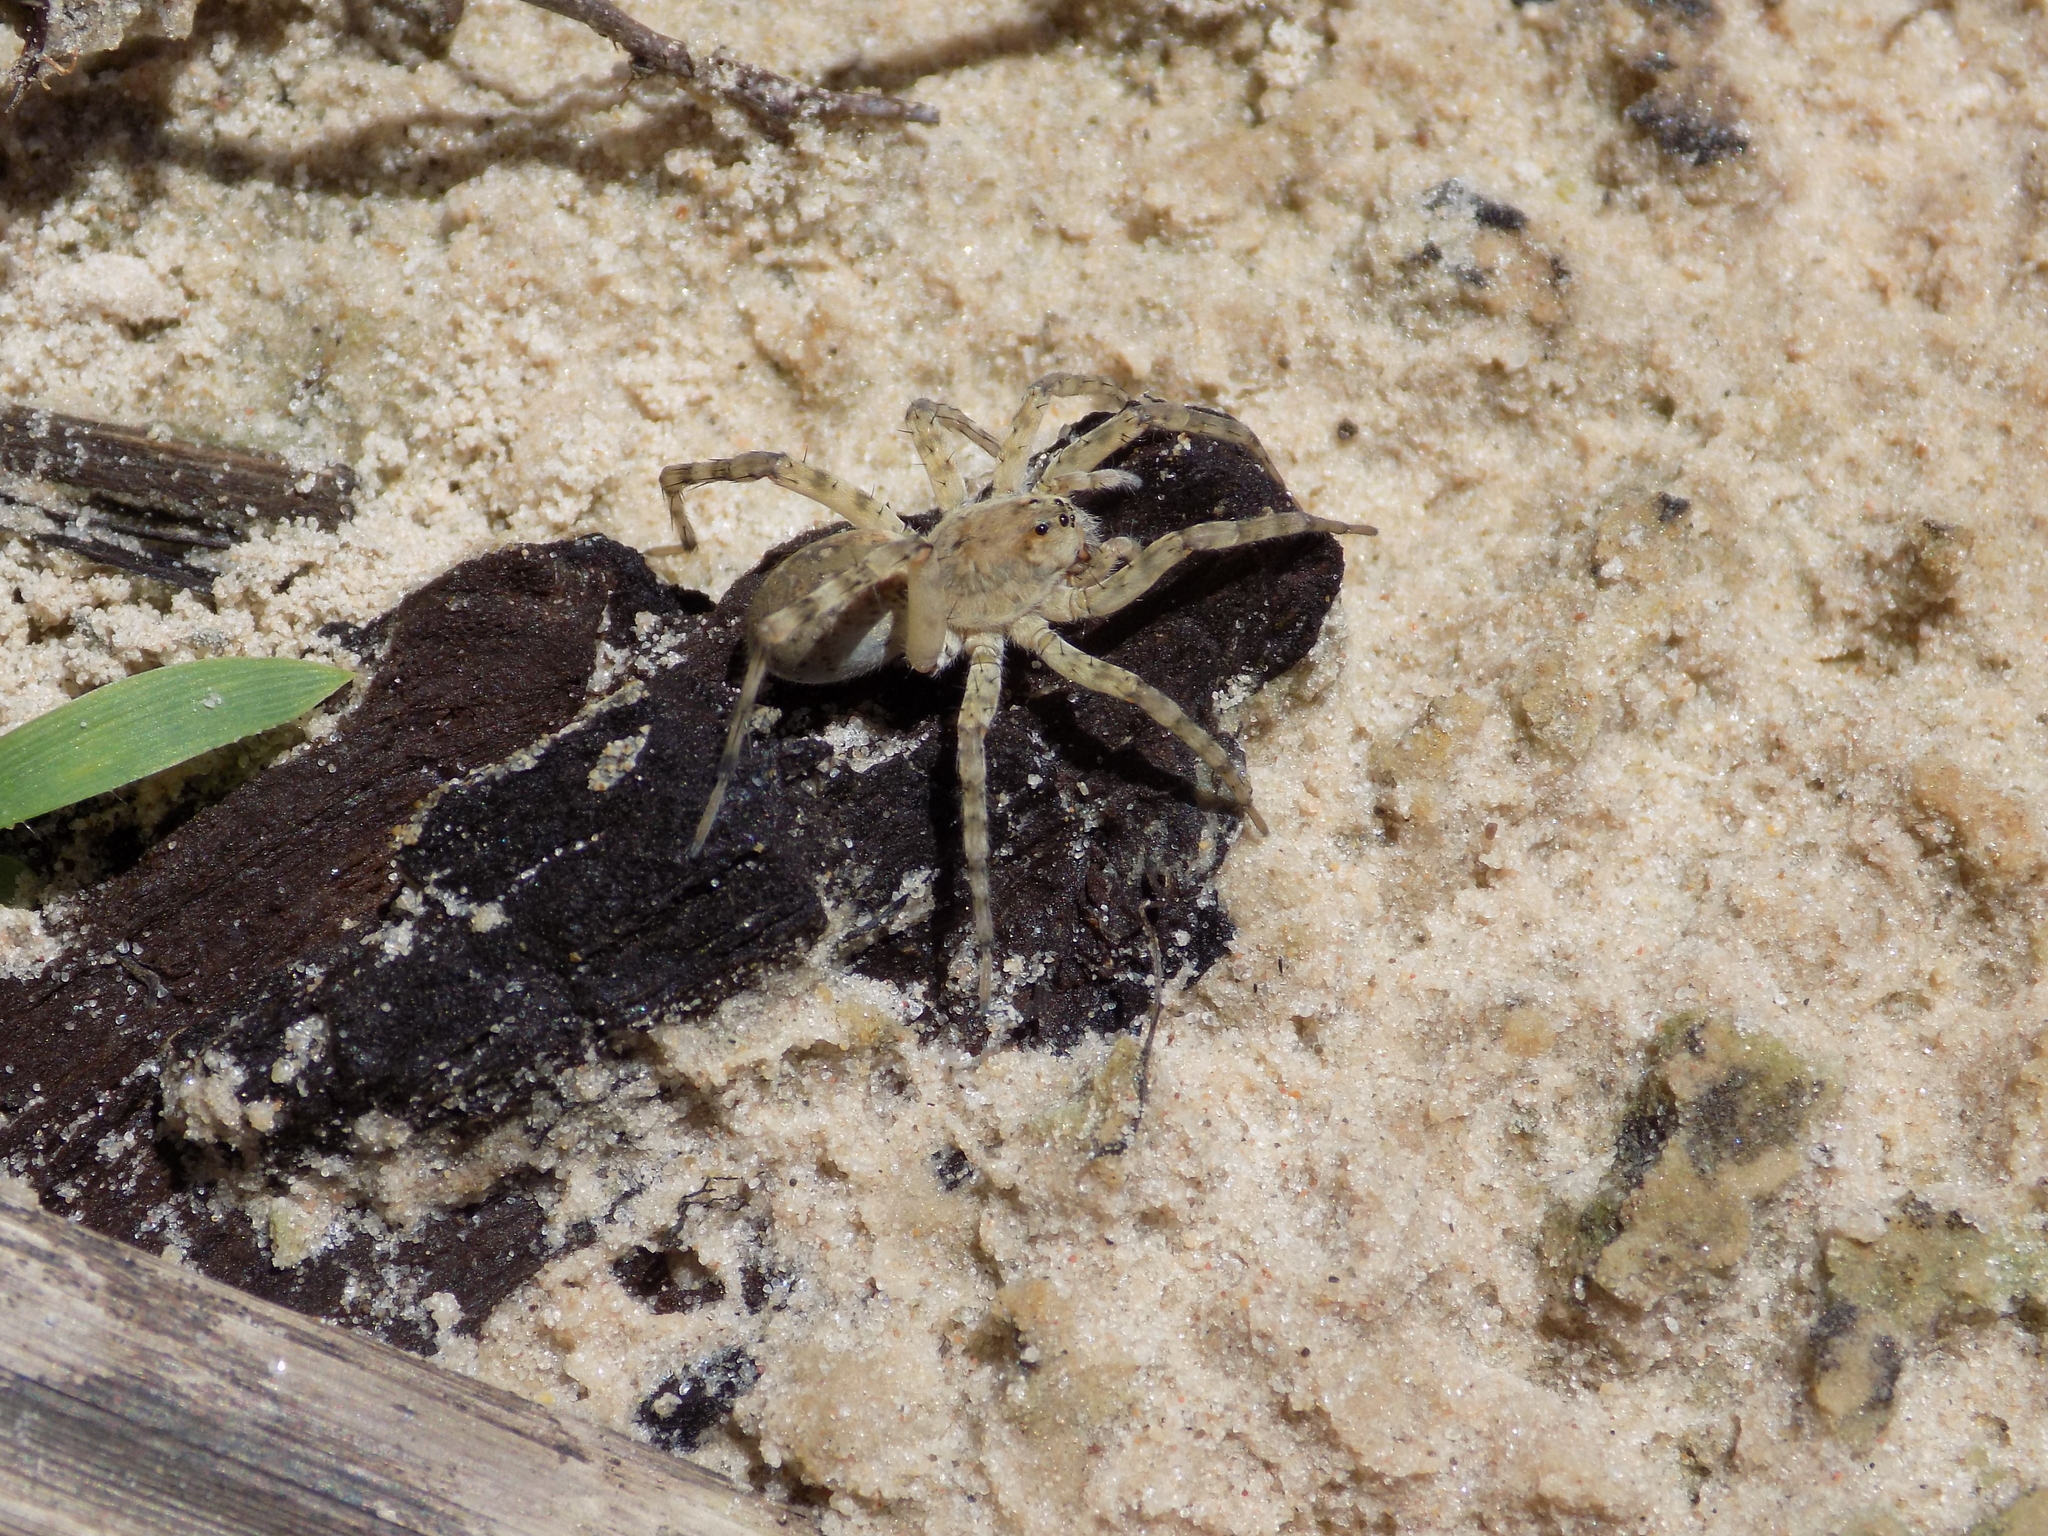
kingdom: Animalia
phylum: Arthropoda
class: Arachnida
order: Araneae
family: Lycosidae
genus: Arctosa
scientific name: Arctosa littoralis
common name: Wolf spiders
